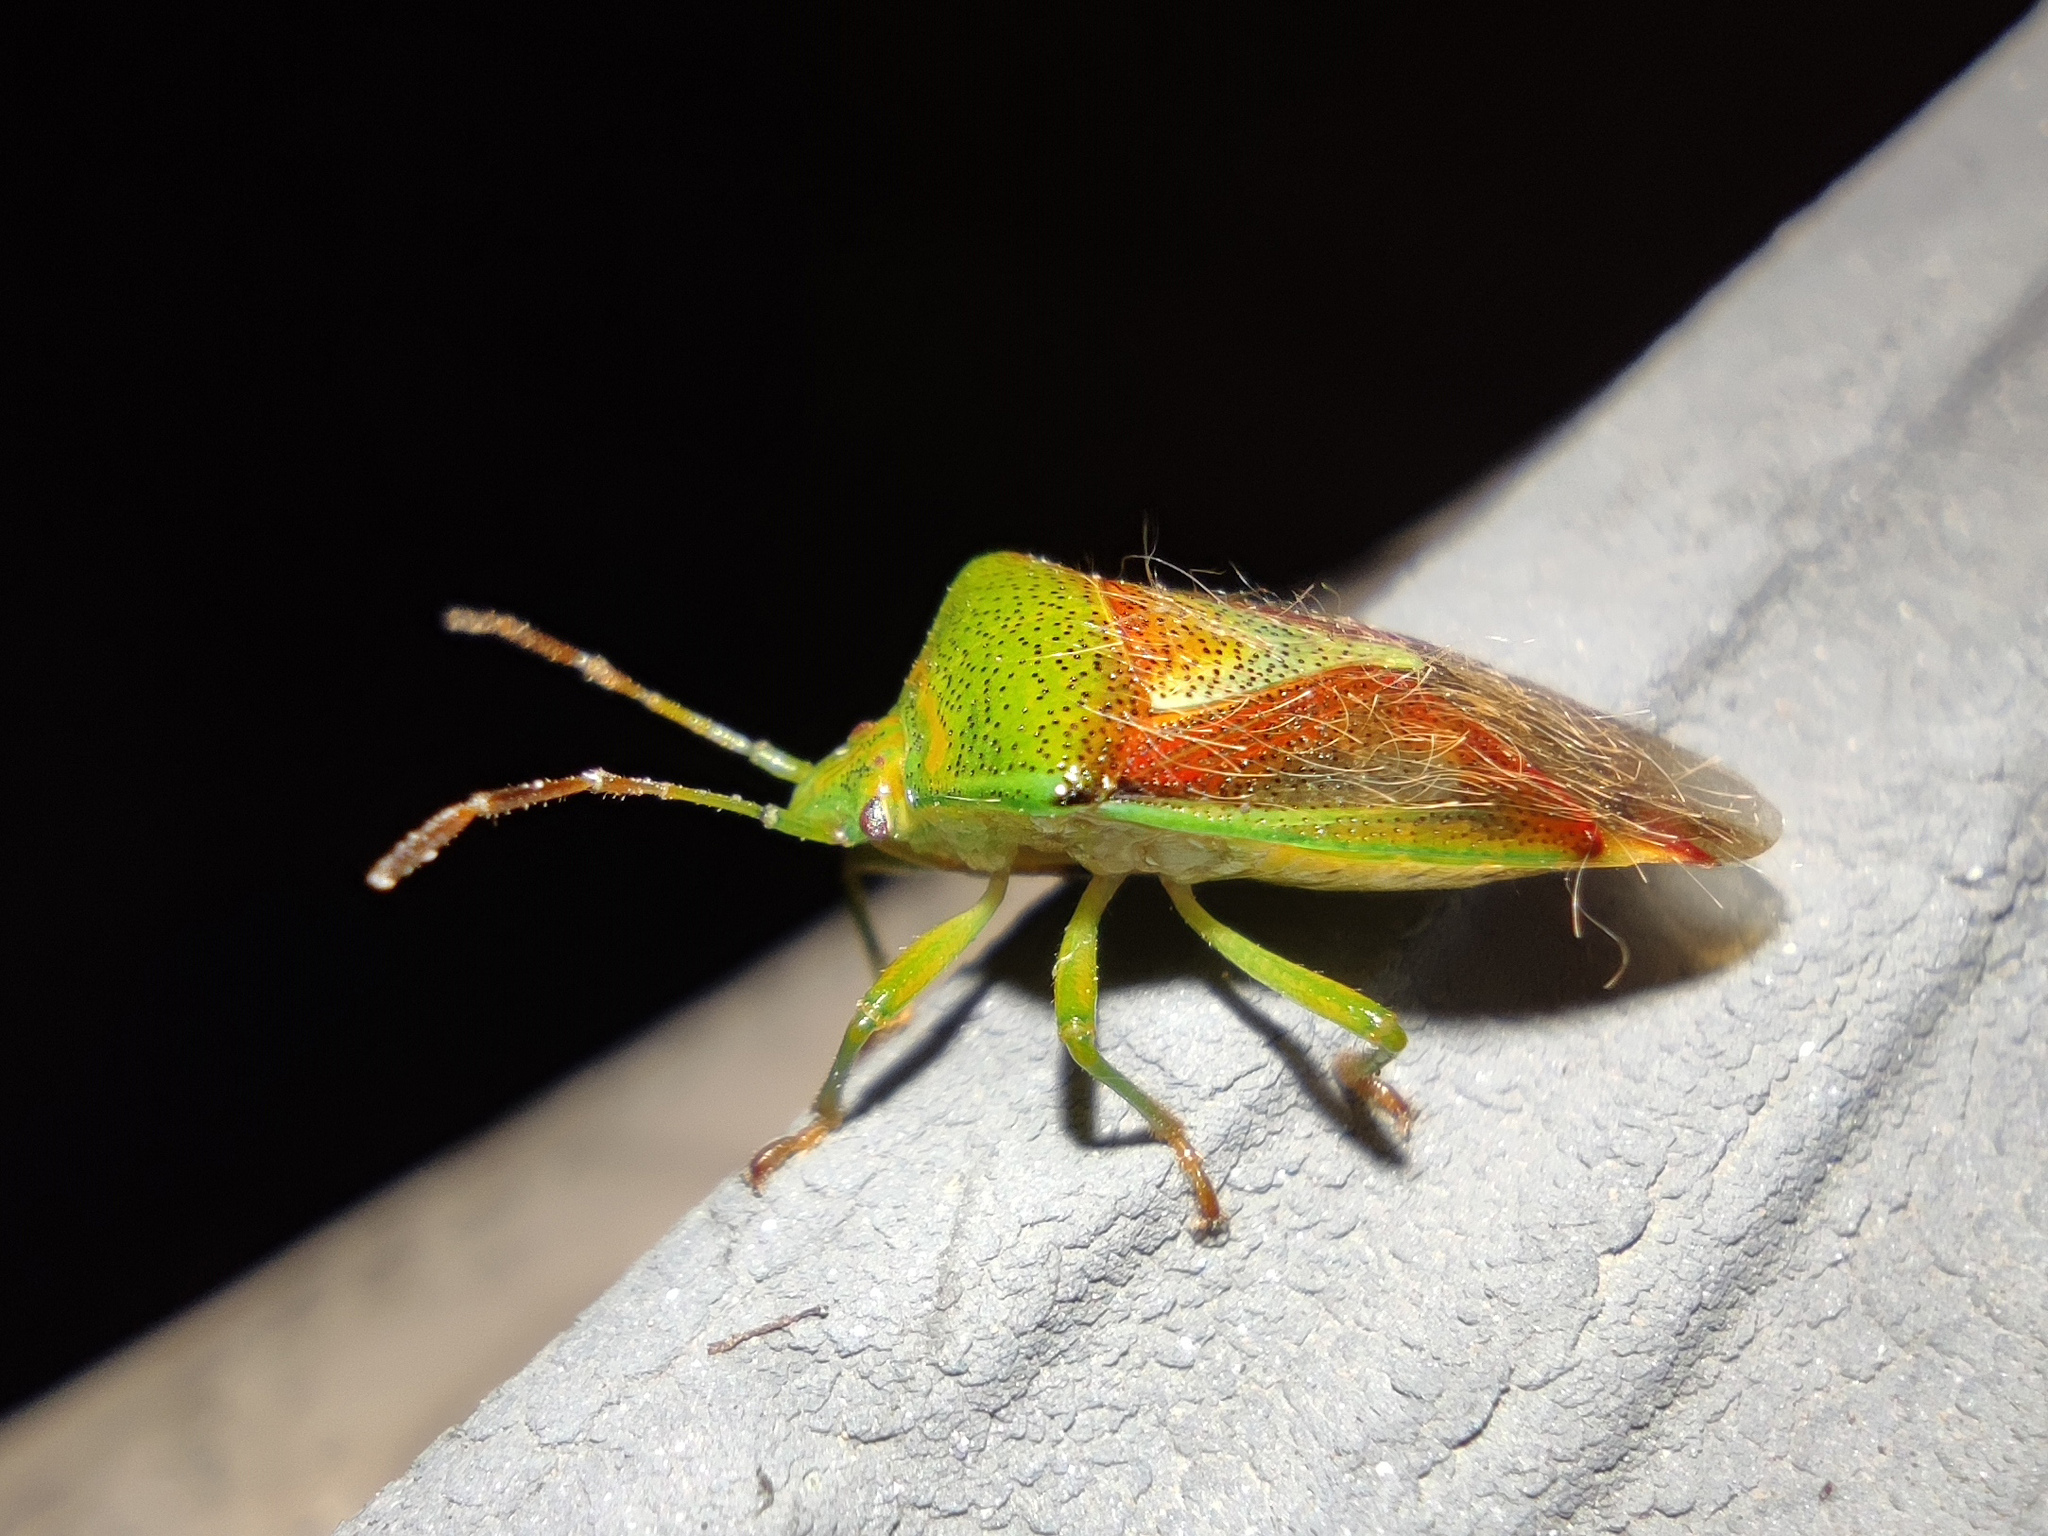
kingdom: Animalia
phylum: Arthropoda
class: Insecta
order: Hemiptera
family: Acanthosomatidae
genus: Elasmostethus
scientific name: Elasmostethus interstinctus
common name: Birch shieldbug
